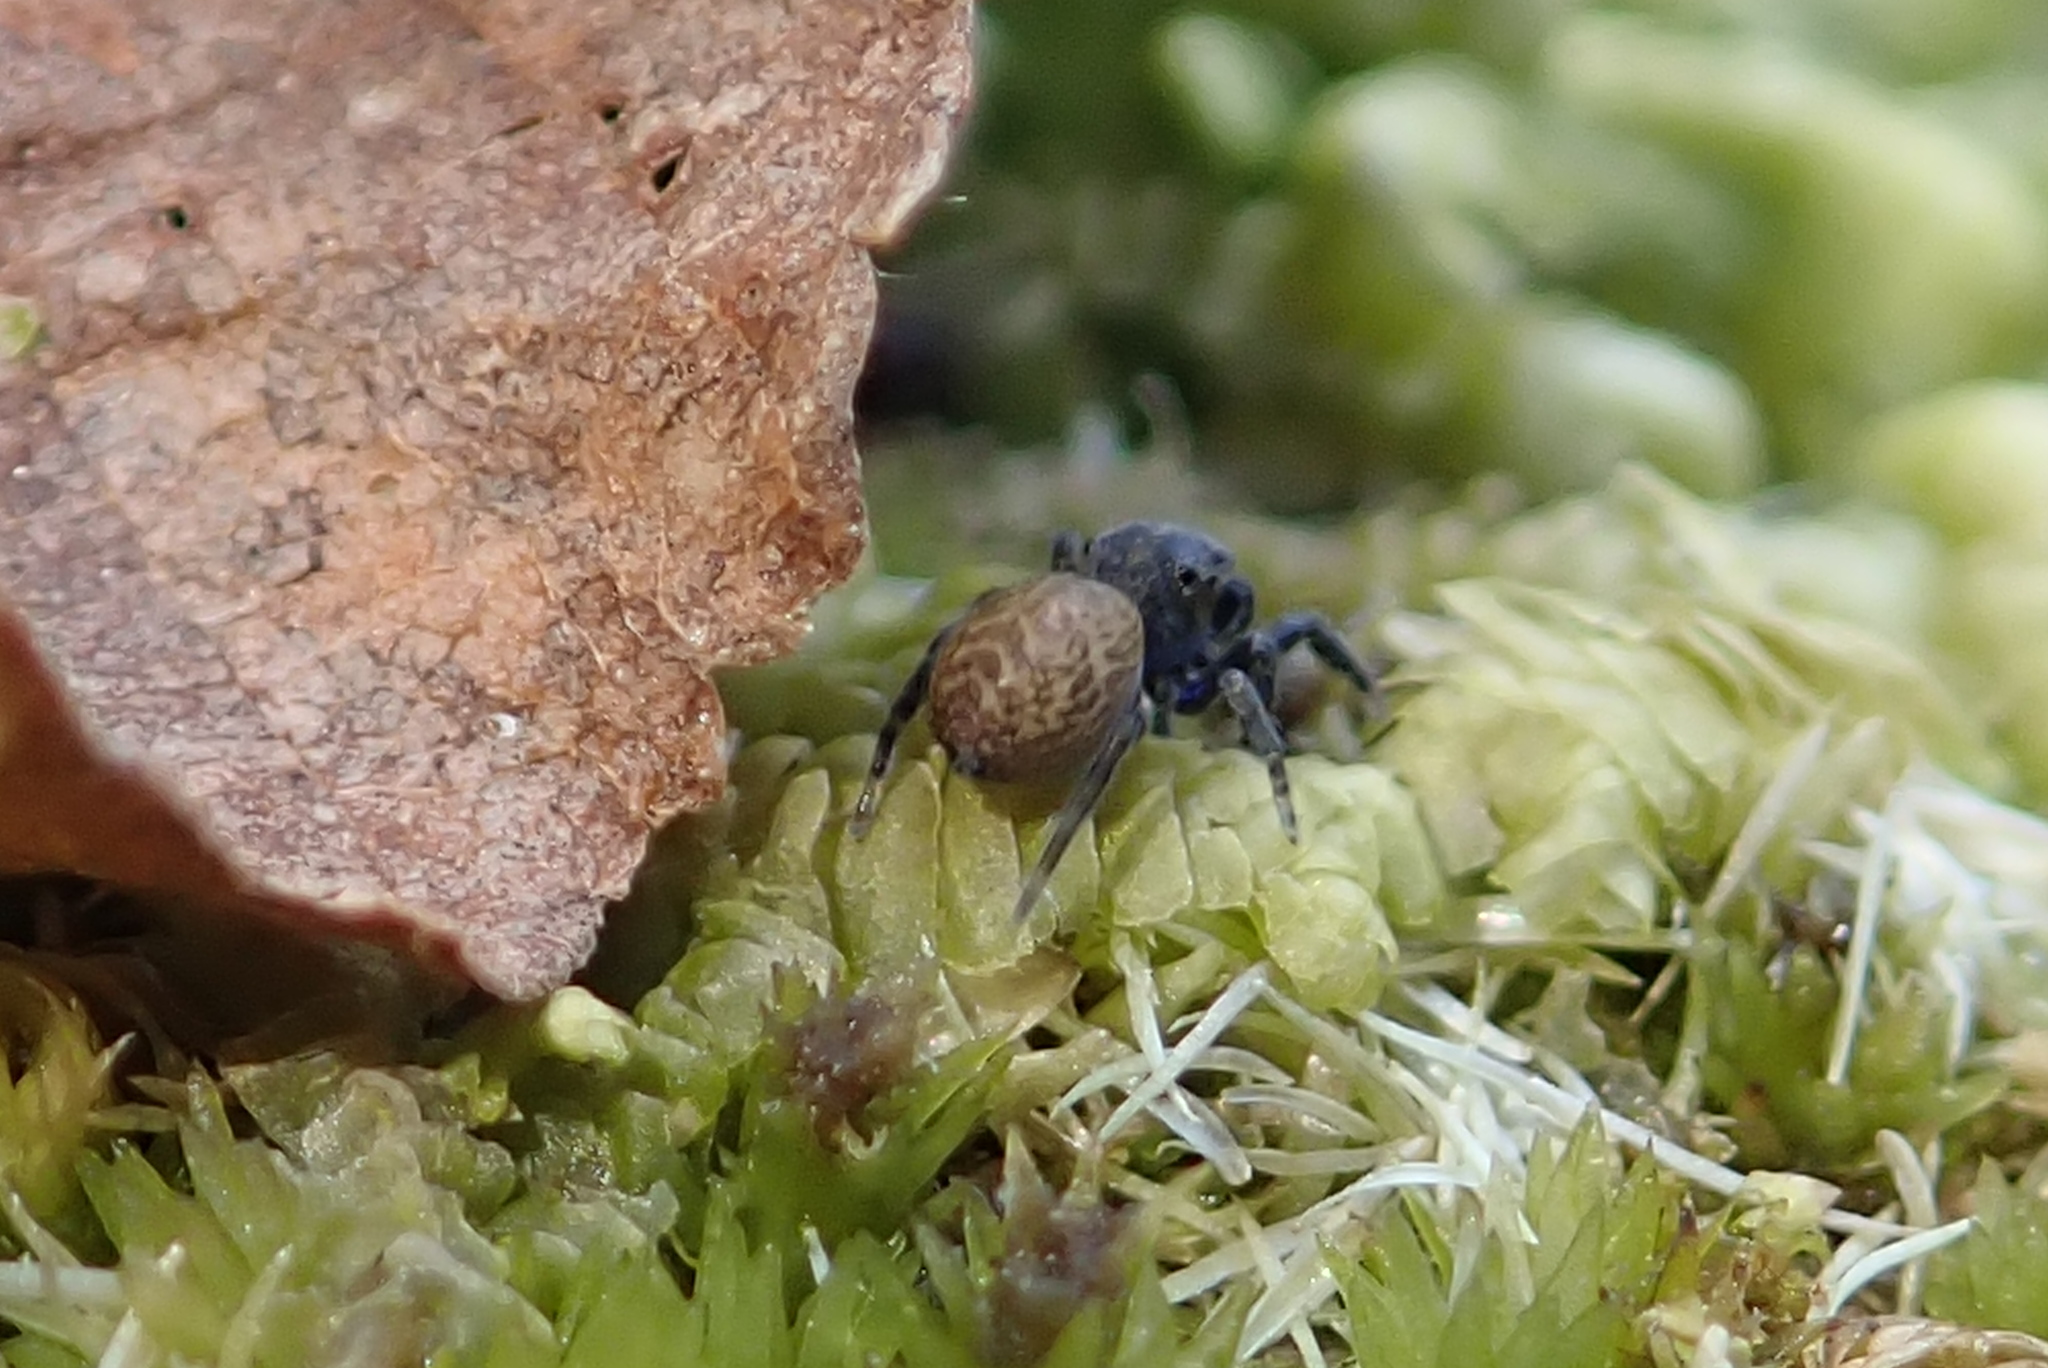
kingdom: Animalia
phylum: Arthropoda
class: Arachnida
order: Araneae
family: Salticidae
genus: Neon
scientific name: Neon nelli
